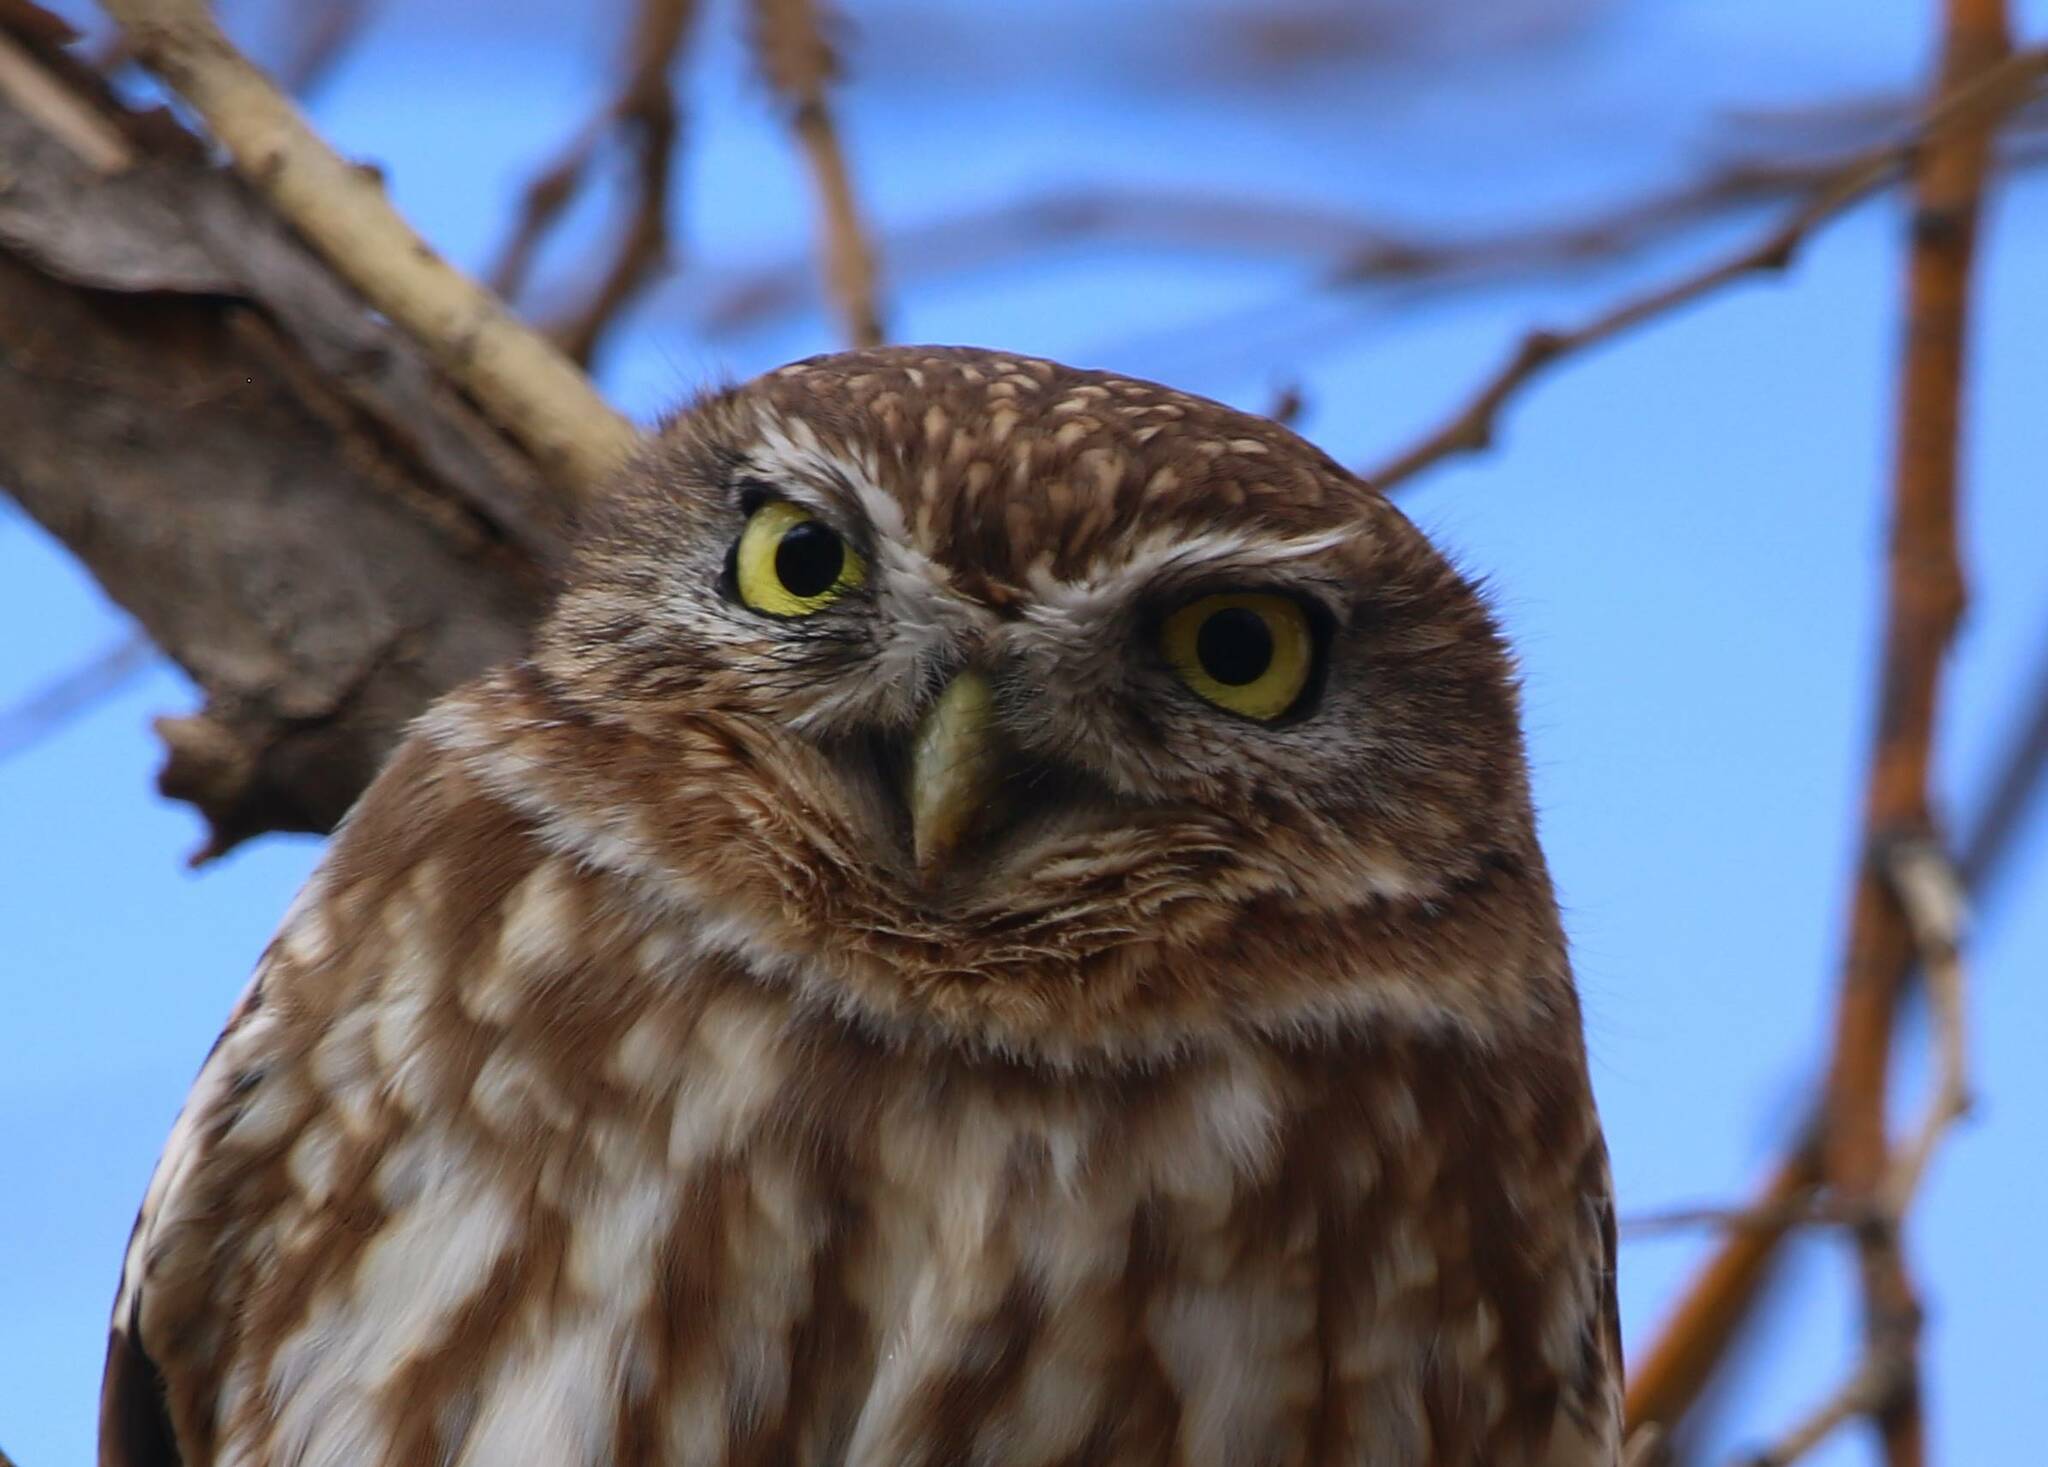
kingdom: Animalia
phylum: Chordata
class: Aves
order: Strigiformes
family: Strigidae
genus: Athene
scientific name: Athene noctua
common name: Little owl
